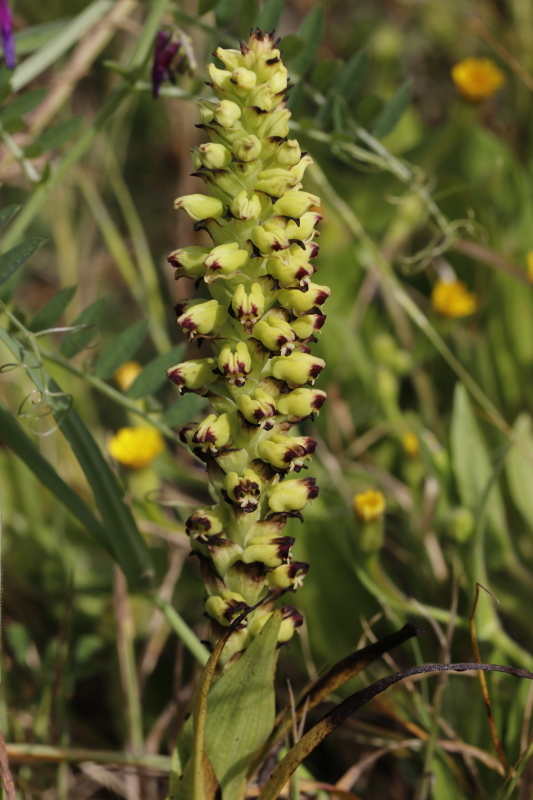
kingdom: Plantae
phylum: Tracheophyta
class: Liliopsida
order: Asparagales
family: Orchidaceae
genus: Corycium
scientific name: Corycium orobanchoides
